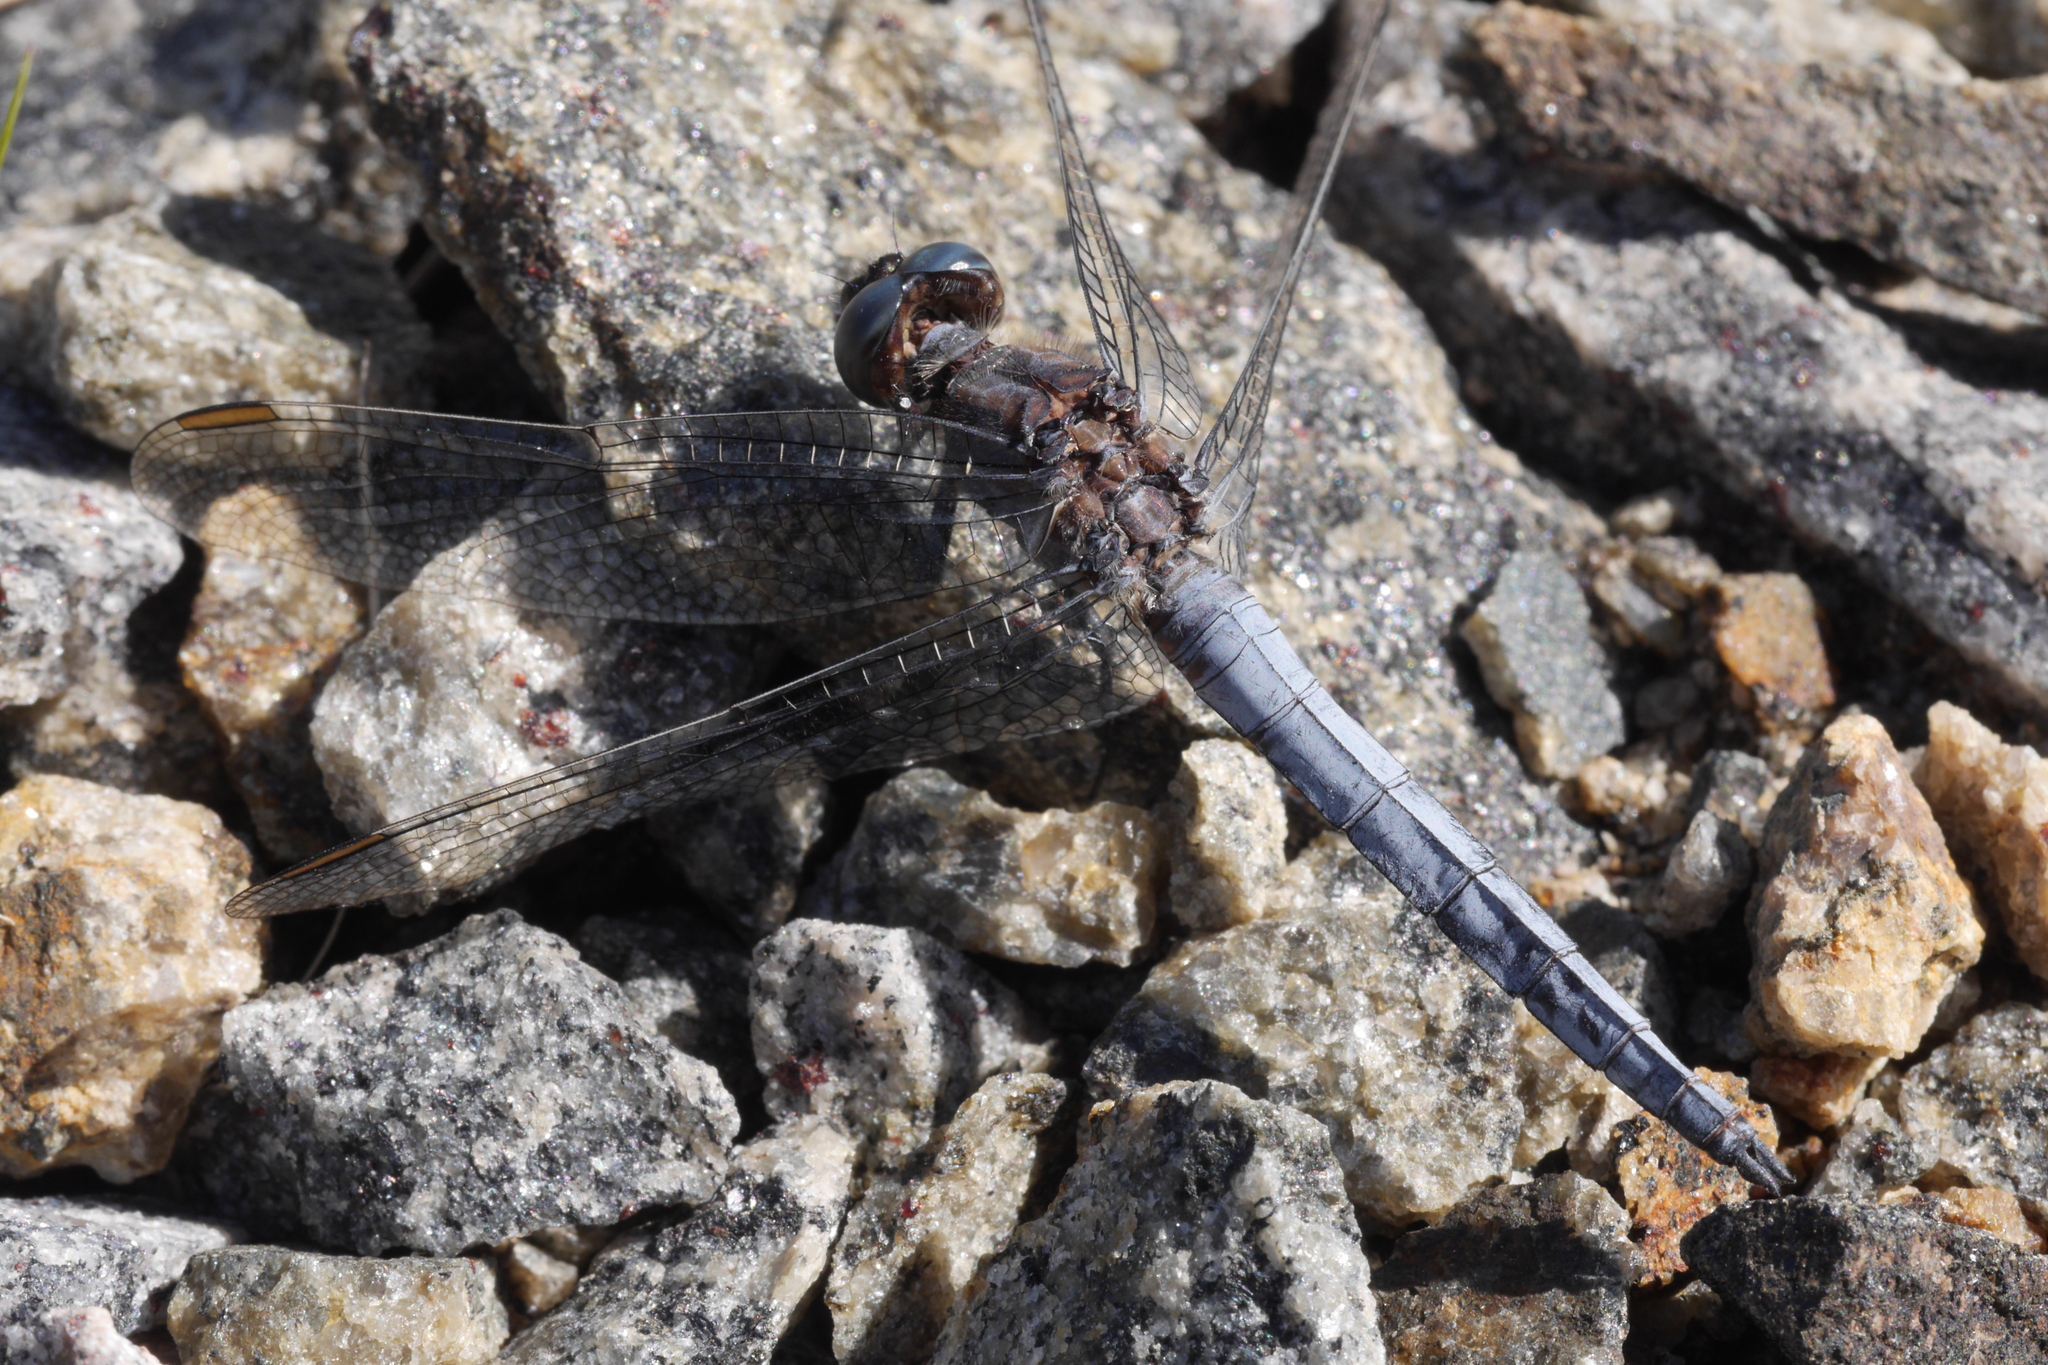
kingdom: Animalia
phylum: Arthropoda
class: Insecta
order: Odonata
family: Libellulidae
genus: Orthetrum
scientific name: Orthetrum coerulescens
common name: Keeled skimmer
